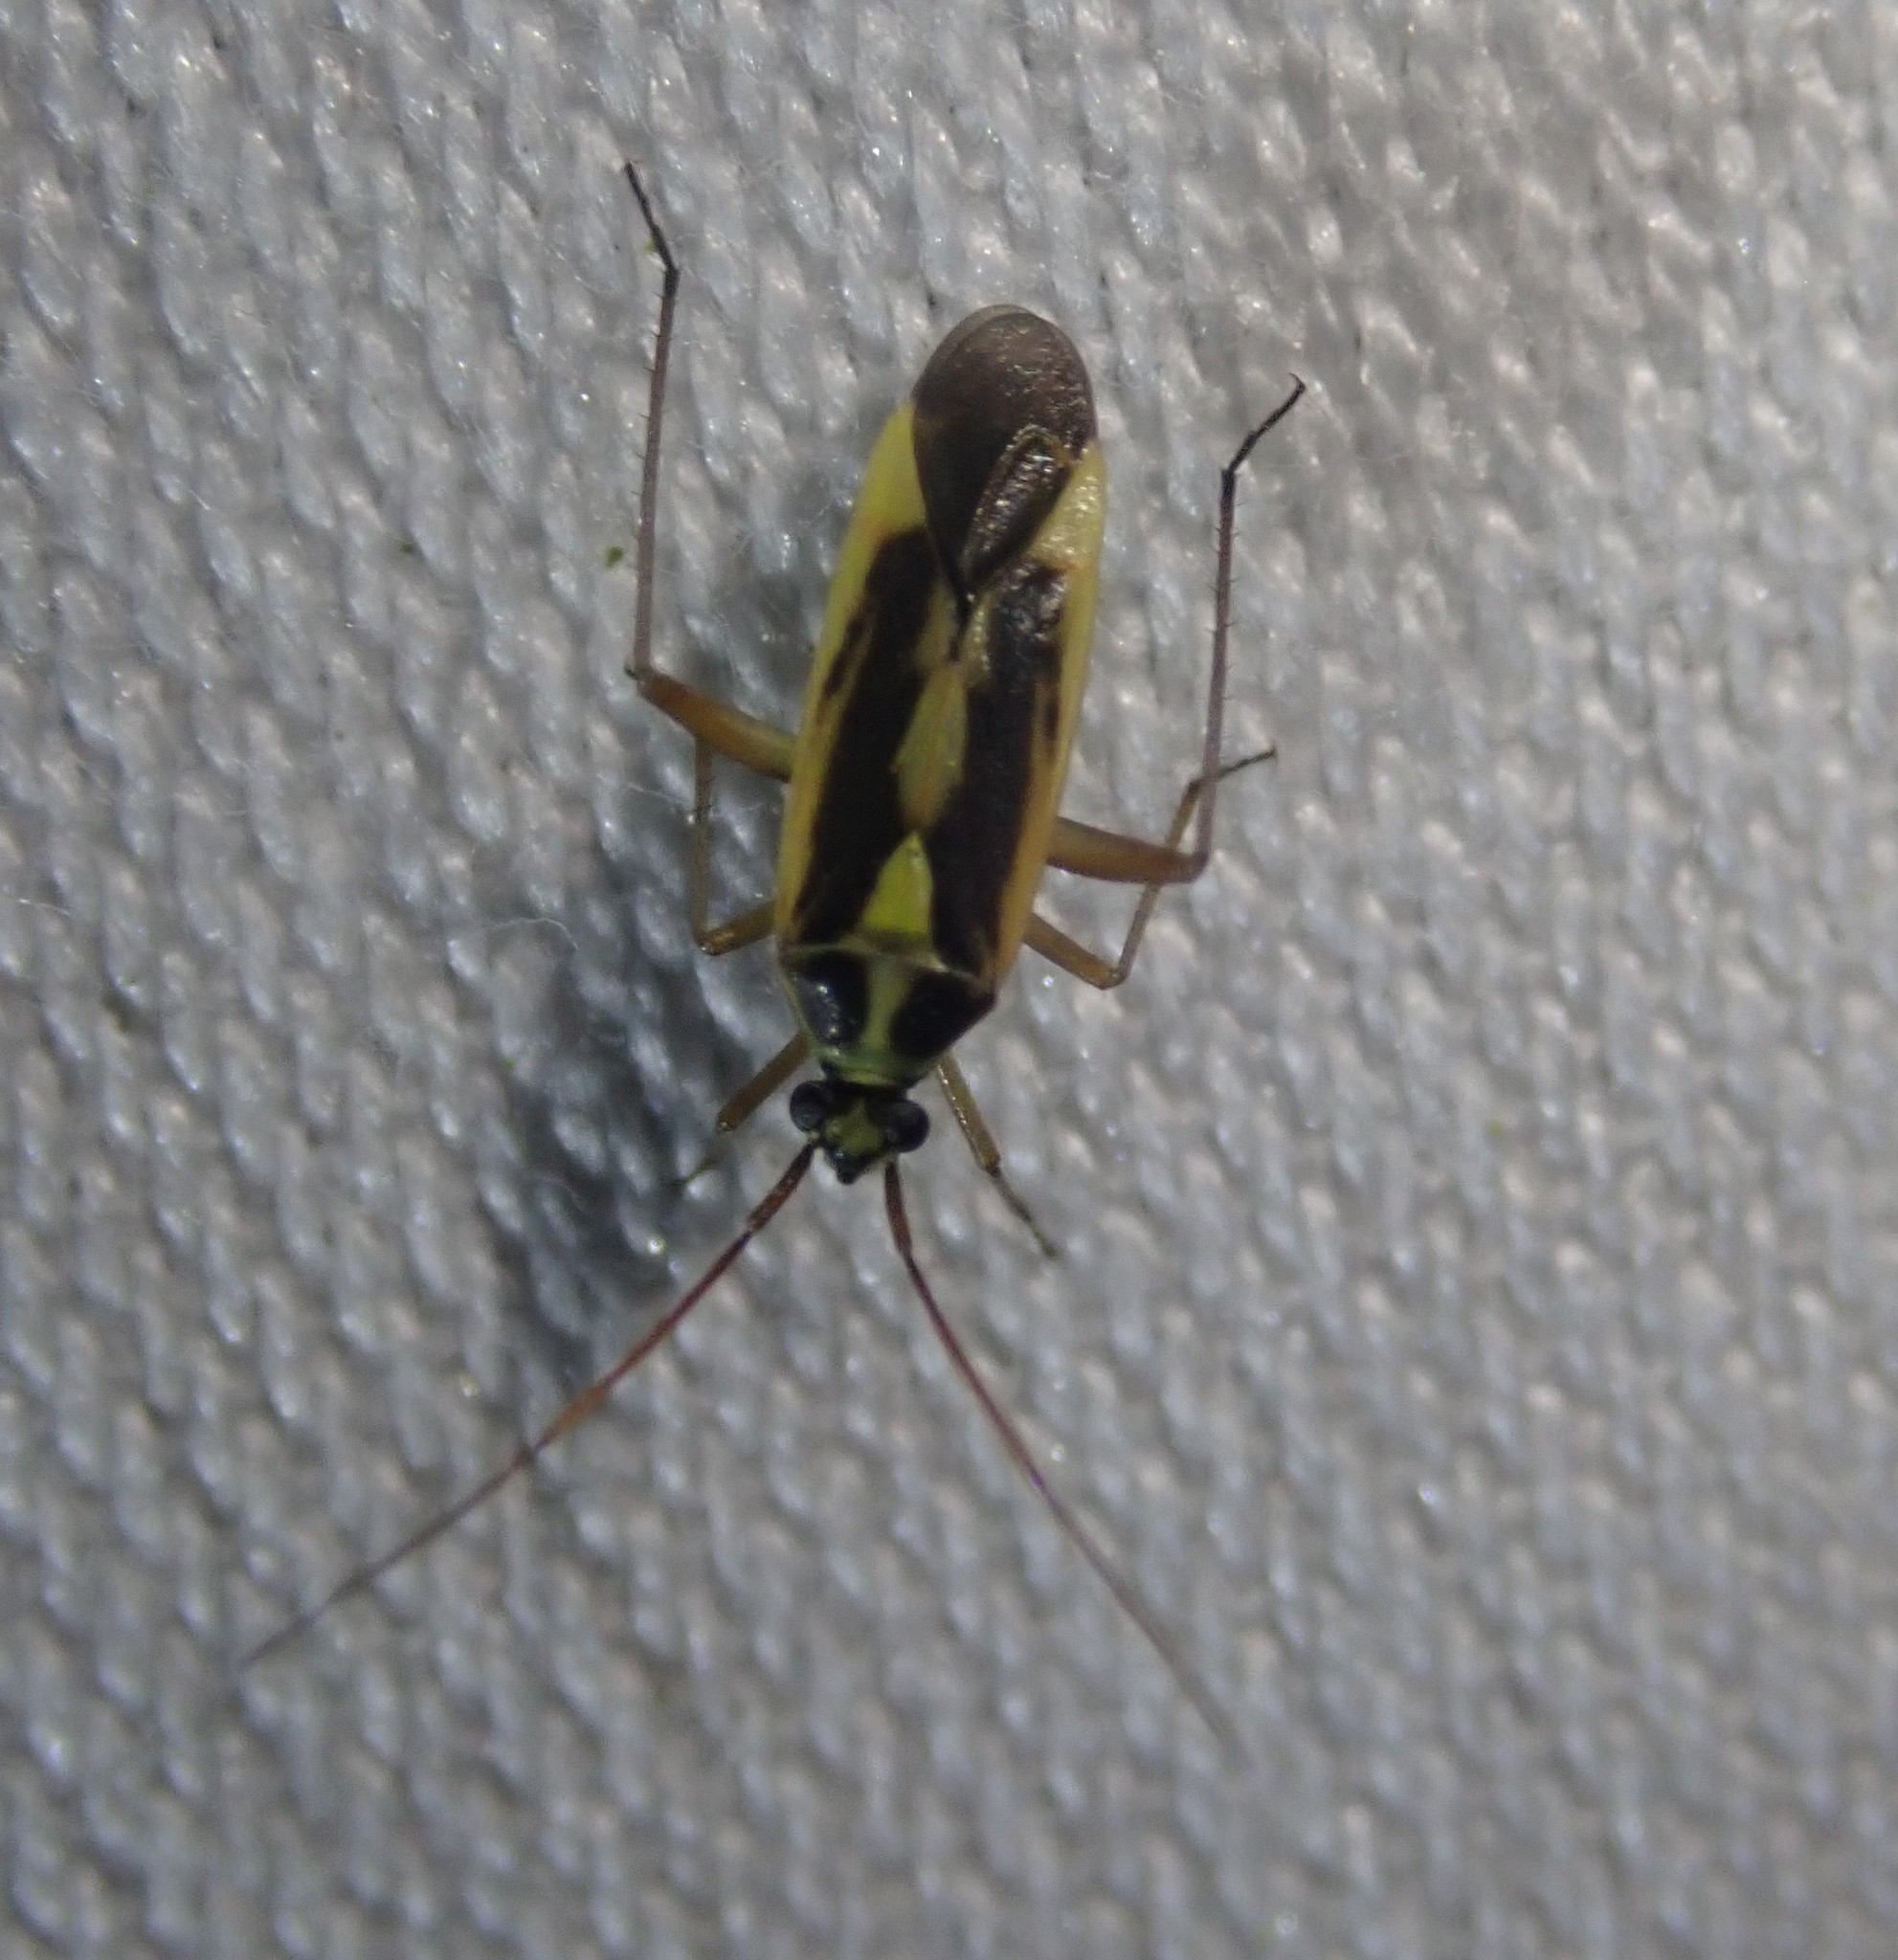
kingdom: Animalia
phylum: Arthropoda
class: Insecta
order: Hemiptera
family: Miridae
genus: Stenotus
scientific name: Stenotus binotatus
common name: Plant bug
